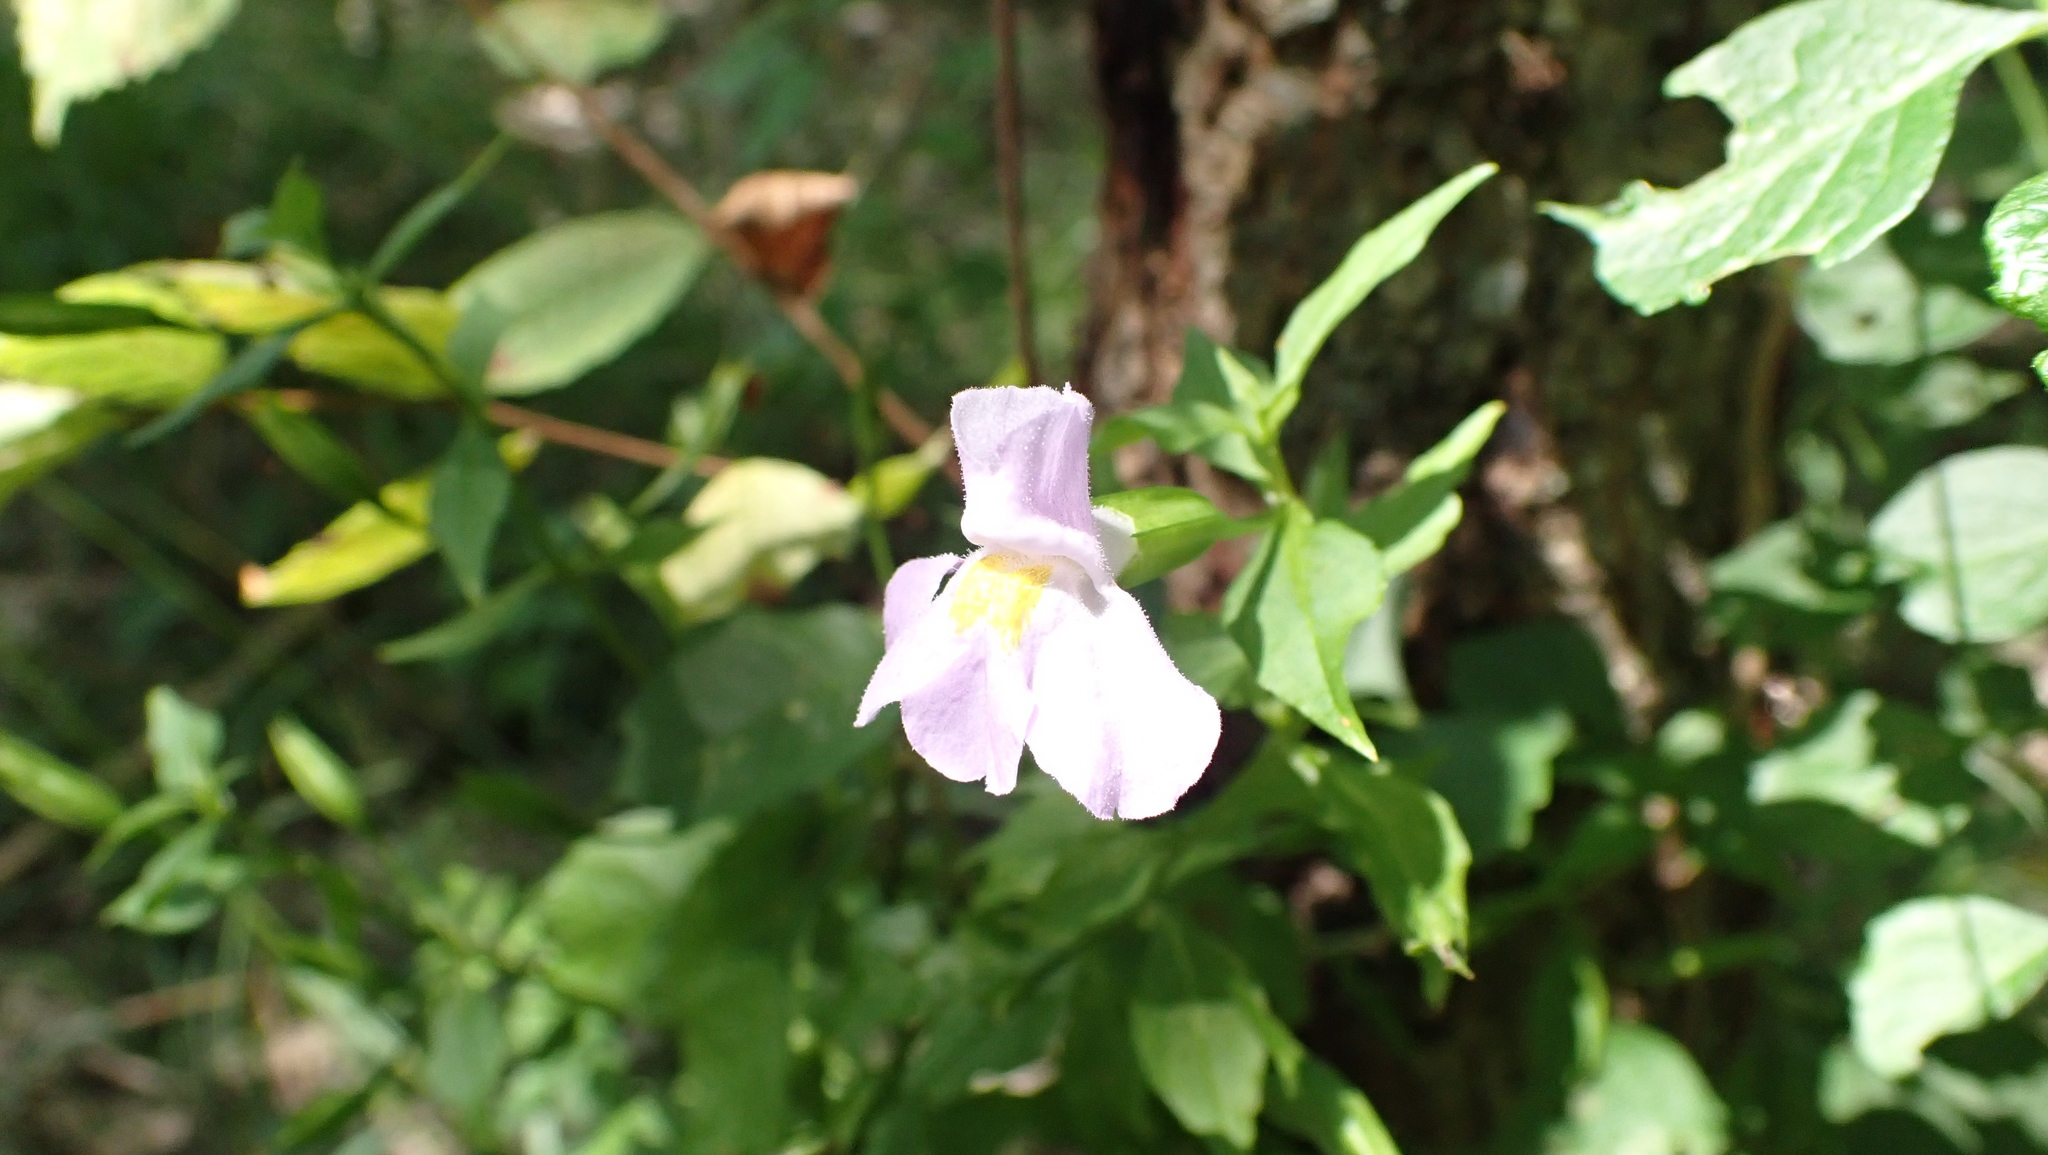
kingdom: Plantae
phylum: Tracheophyta
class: Magnoliopsida
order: Lamiales
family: Phrymaceae
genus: Mimulus
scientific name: Mimulus alatus
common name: Sharp-wing monkey-flower
